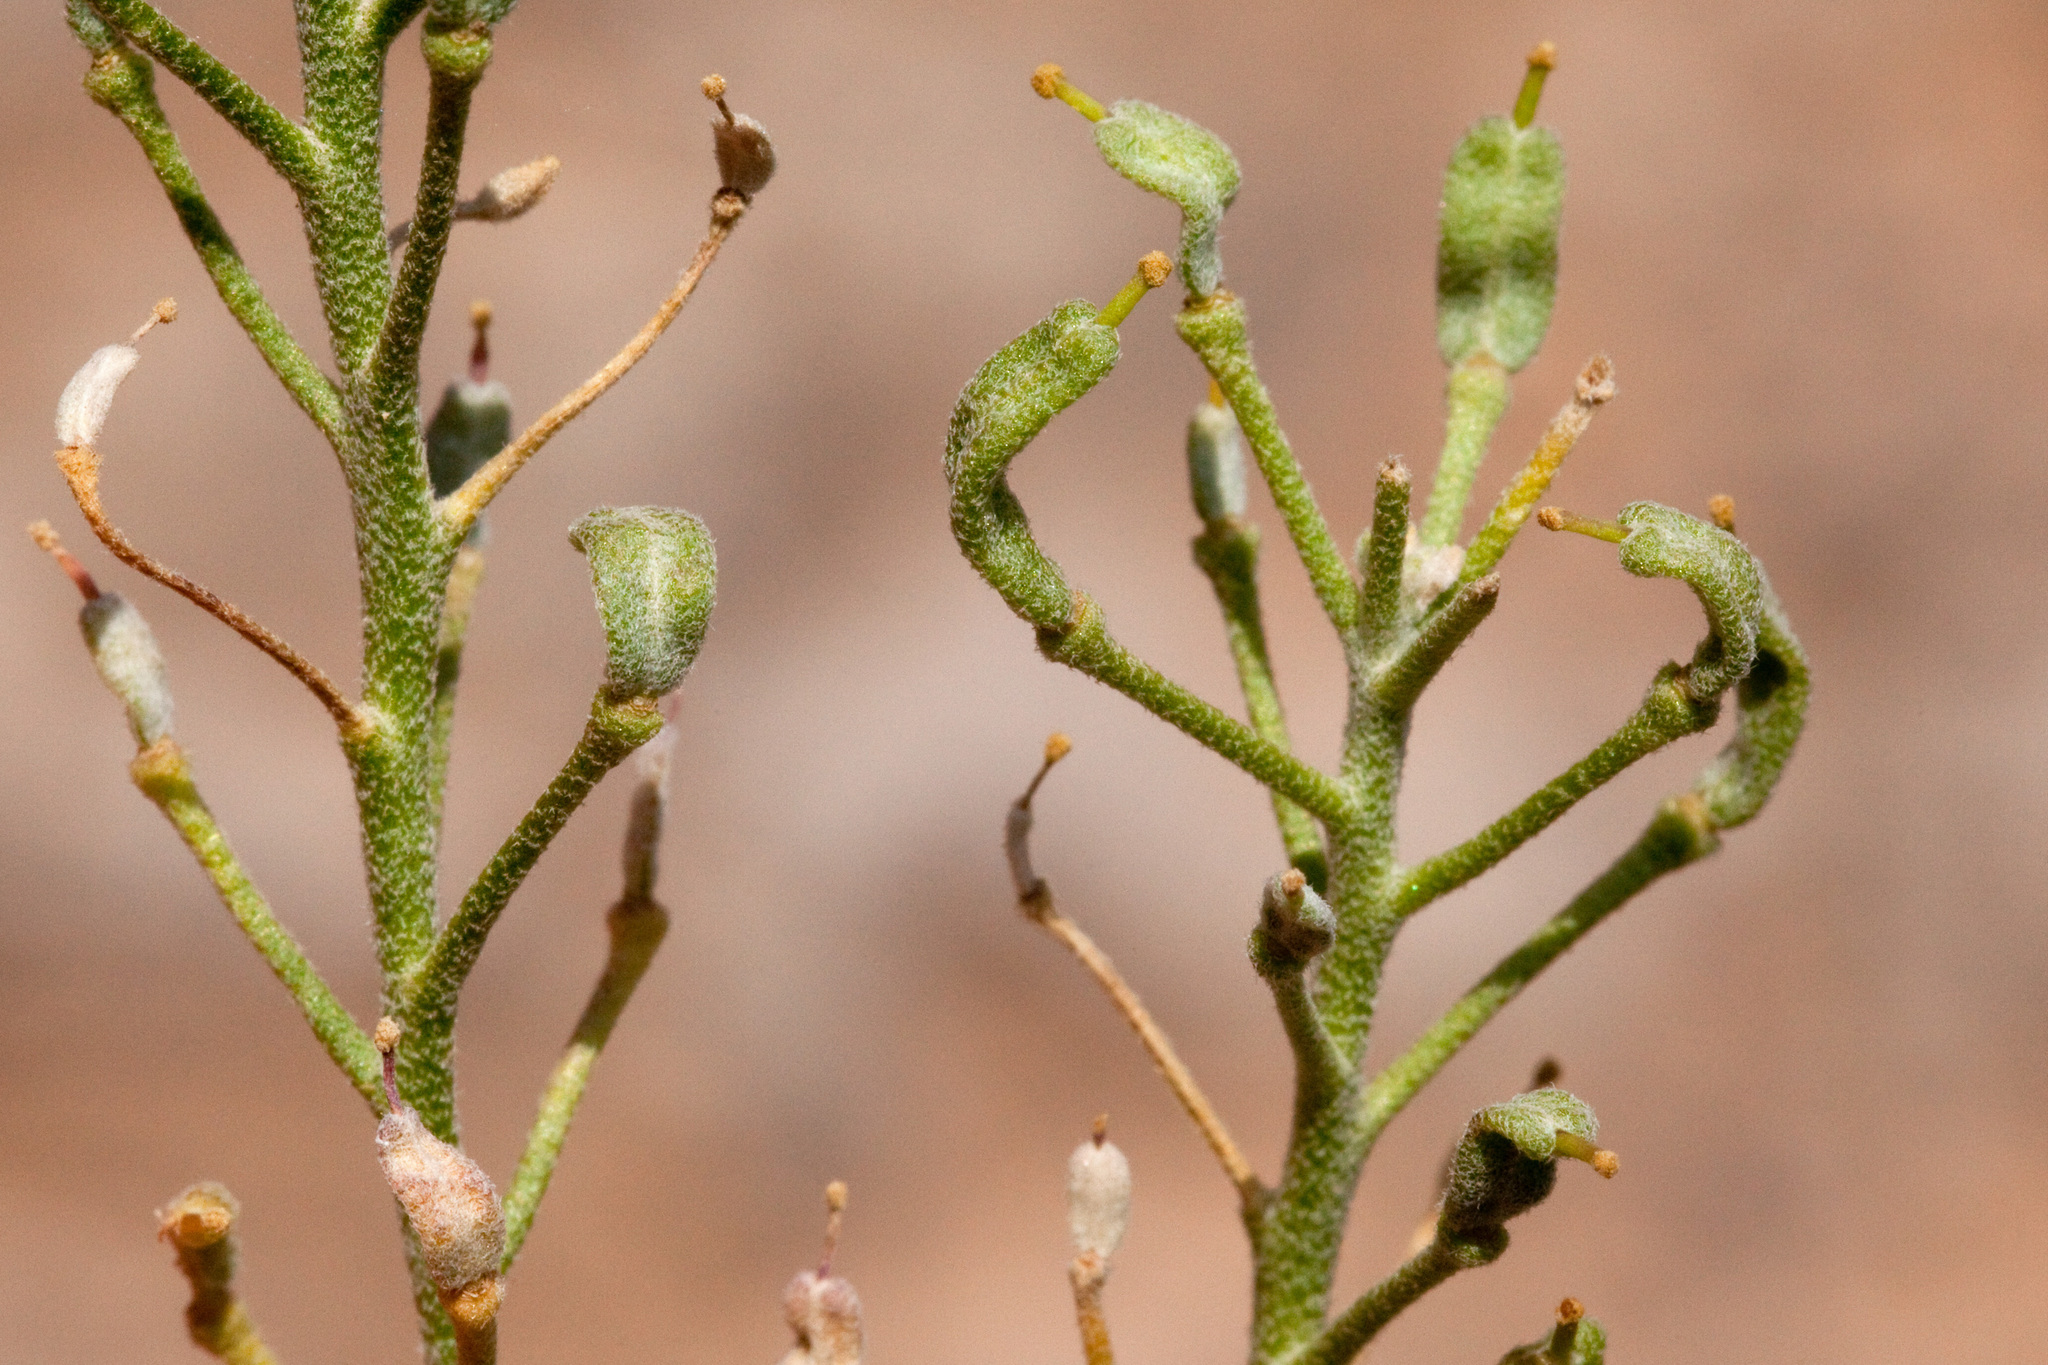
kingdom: Plantae
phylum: Tracheophyta
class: Magnoliopsida
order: Brassicales
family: Brassicaceae
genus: Nerisyrenia
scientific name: Nerisyrenia hypercorax
